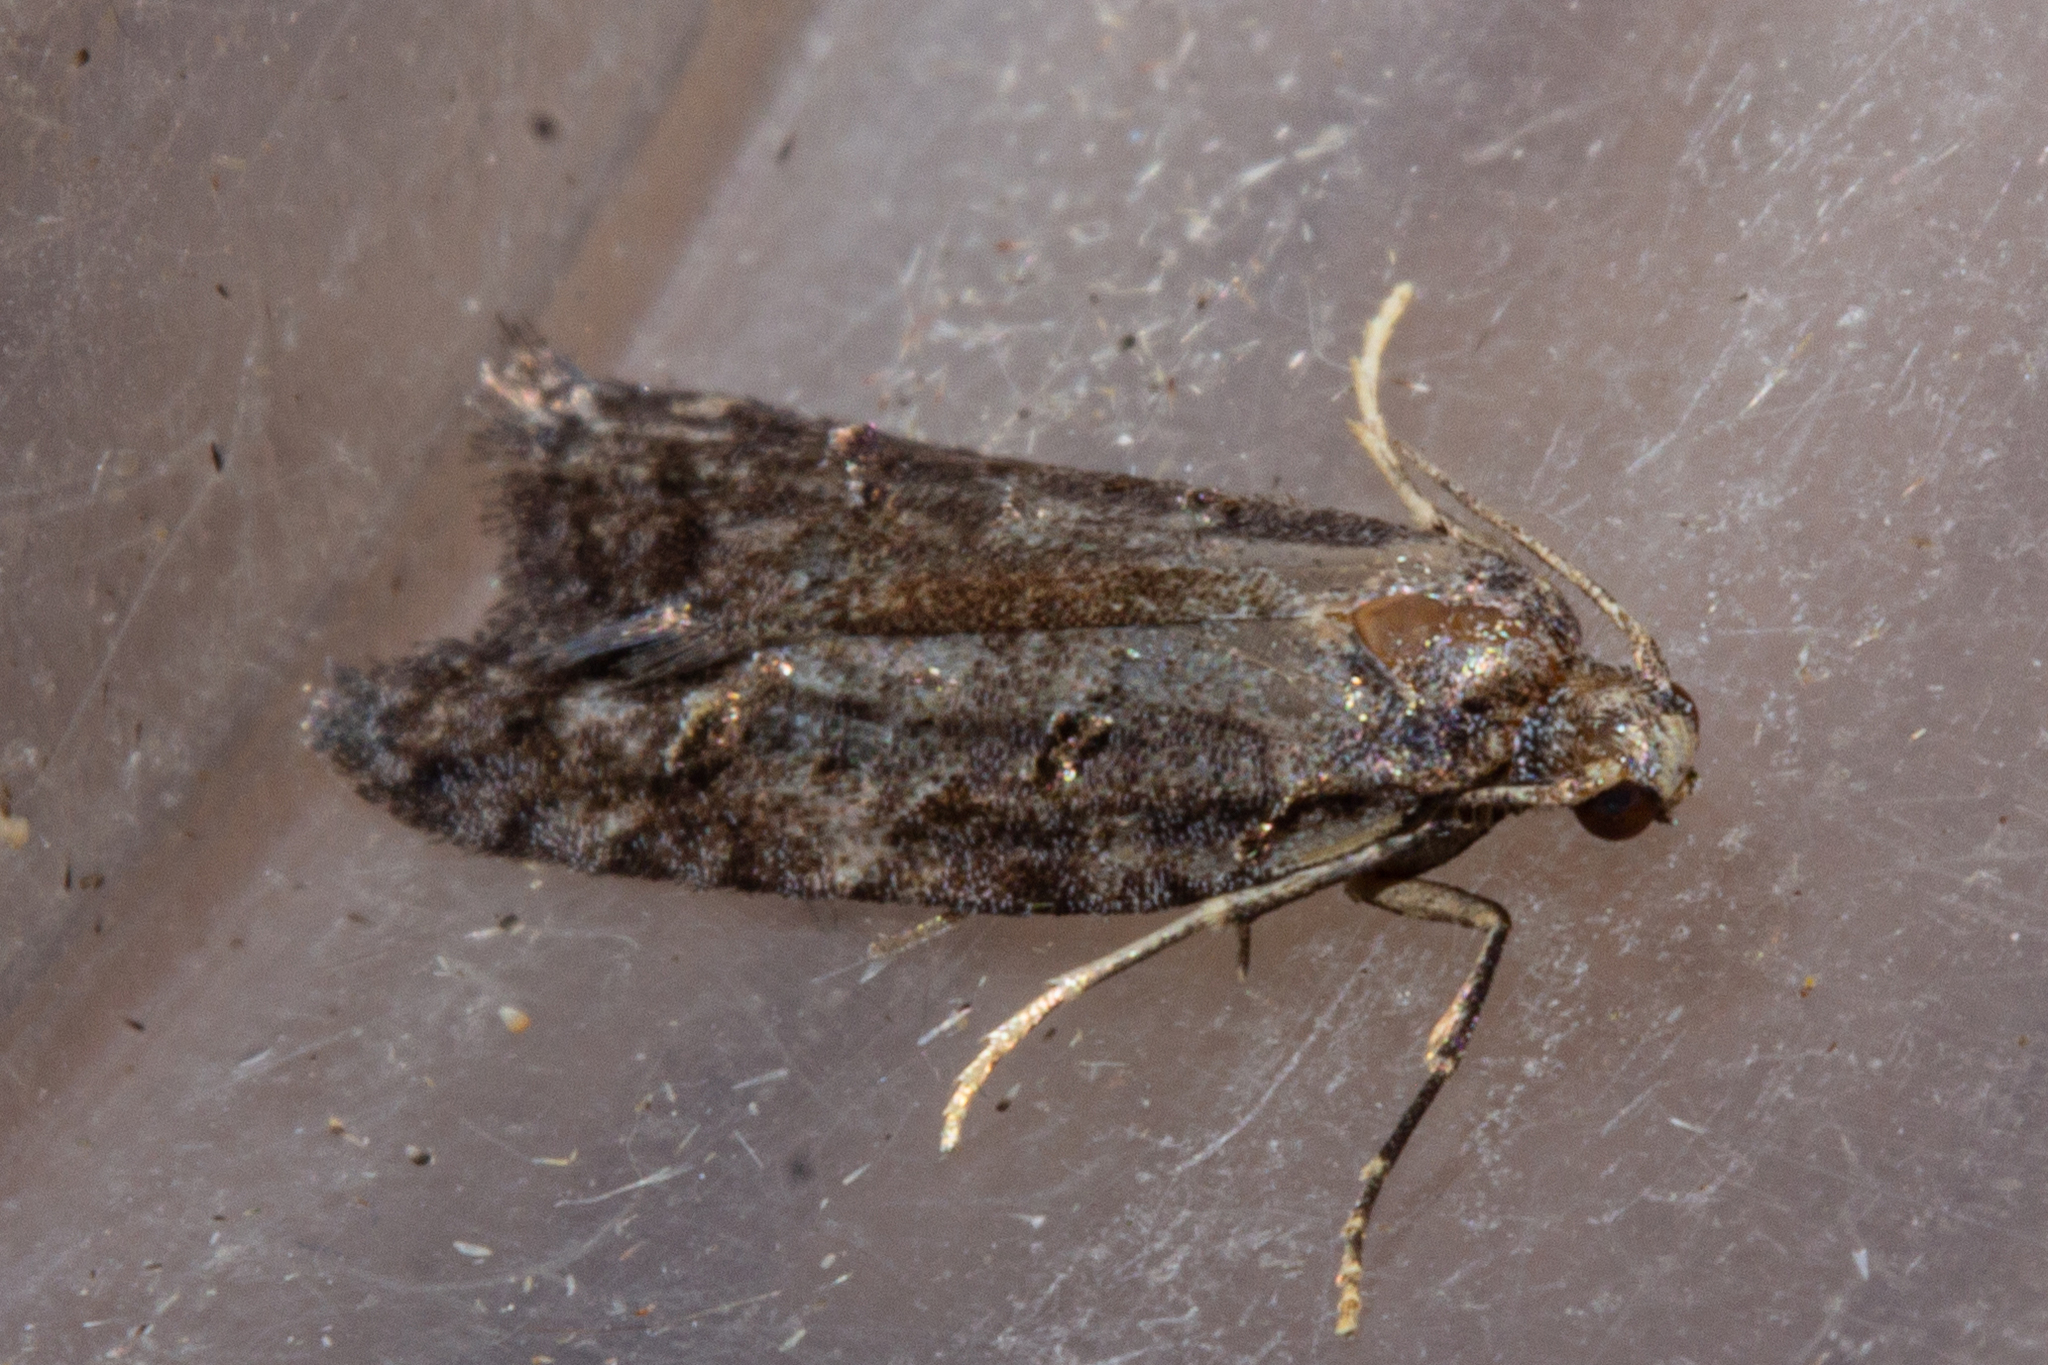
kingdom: Animalia
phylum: Arthropoda
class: Insecta
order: Lepidoptera
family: Carposinidae
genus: Carposina
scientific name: Carposina
